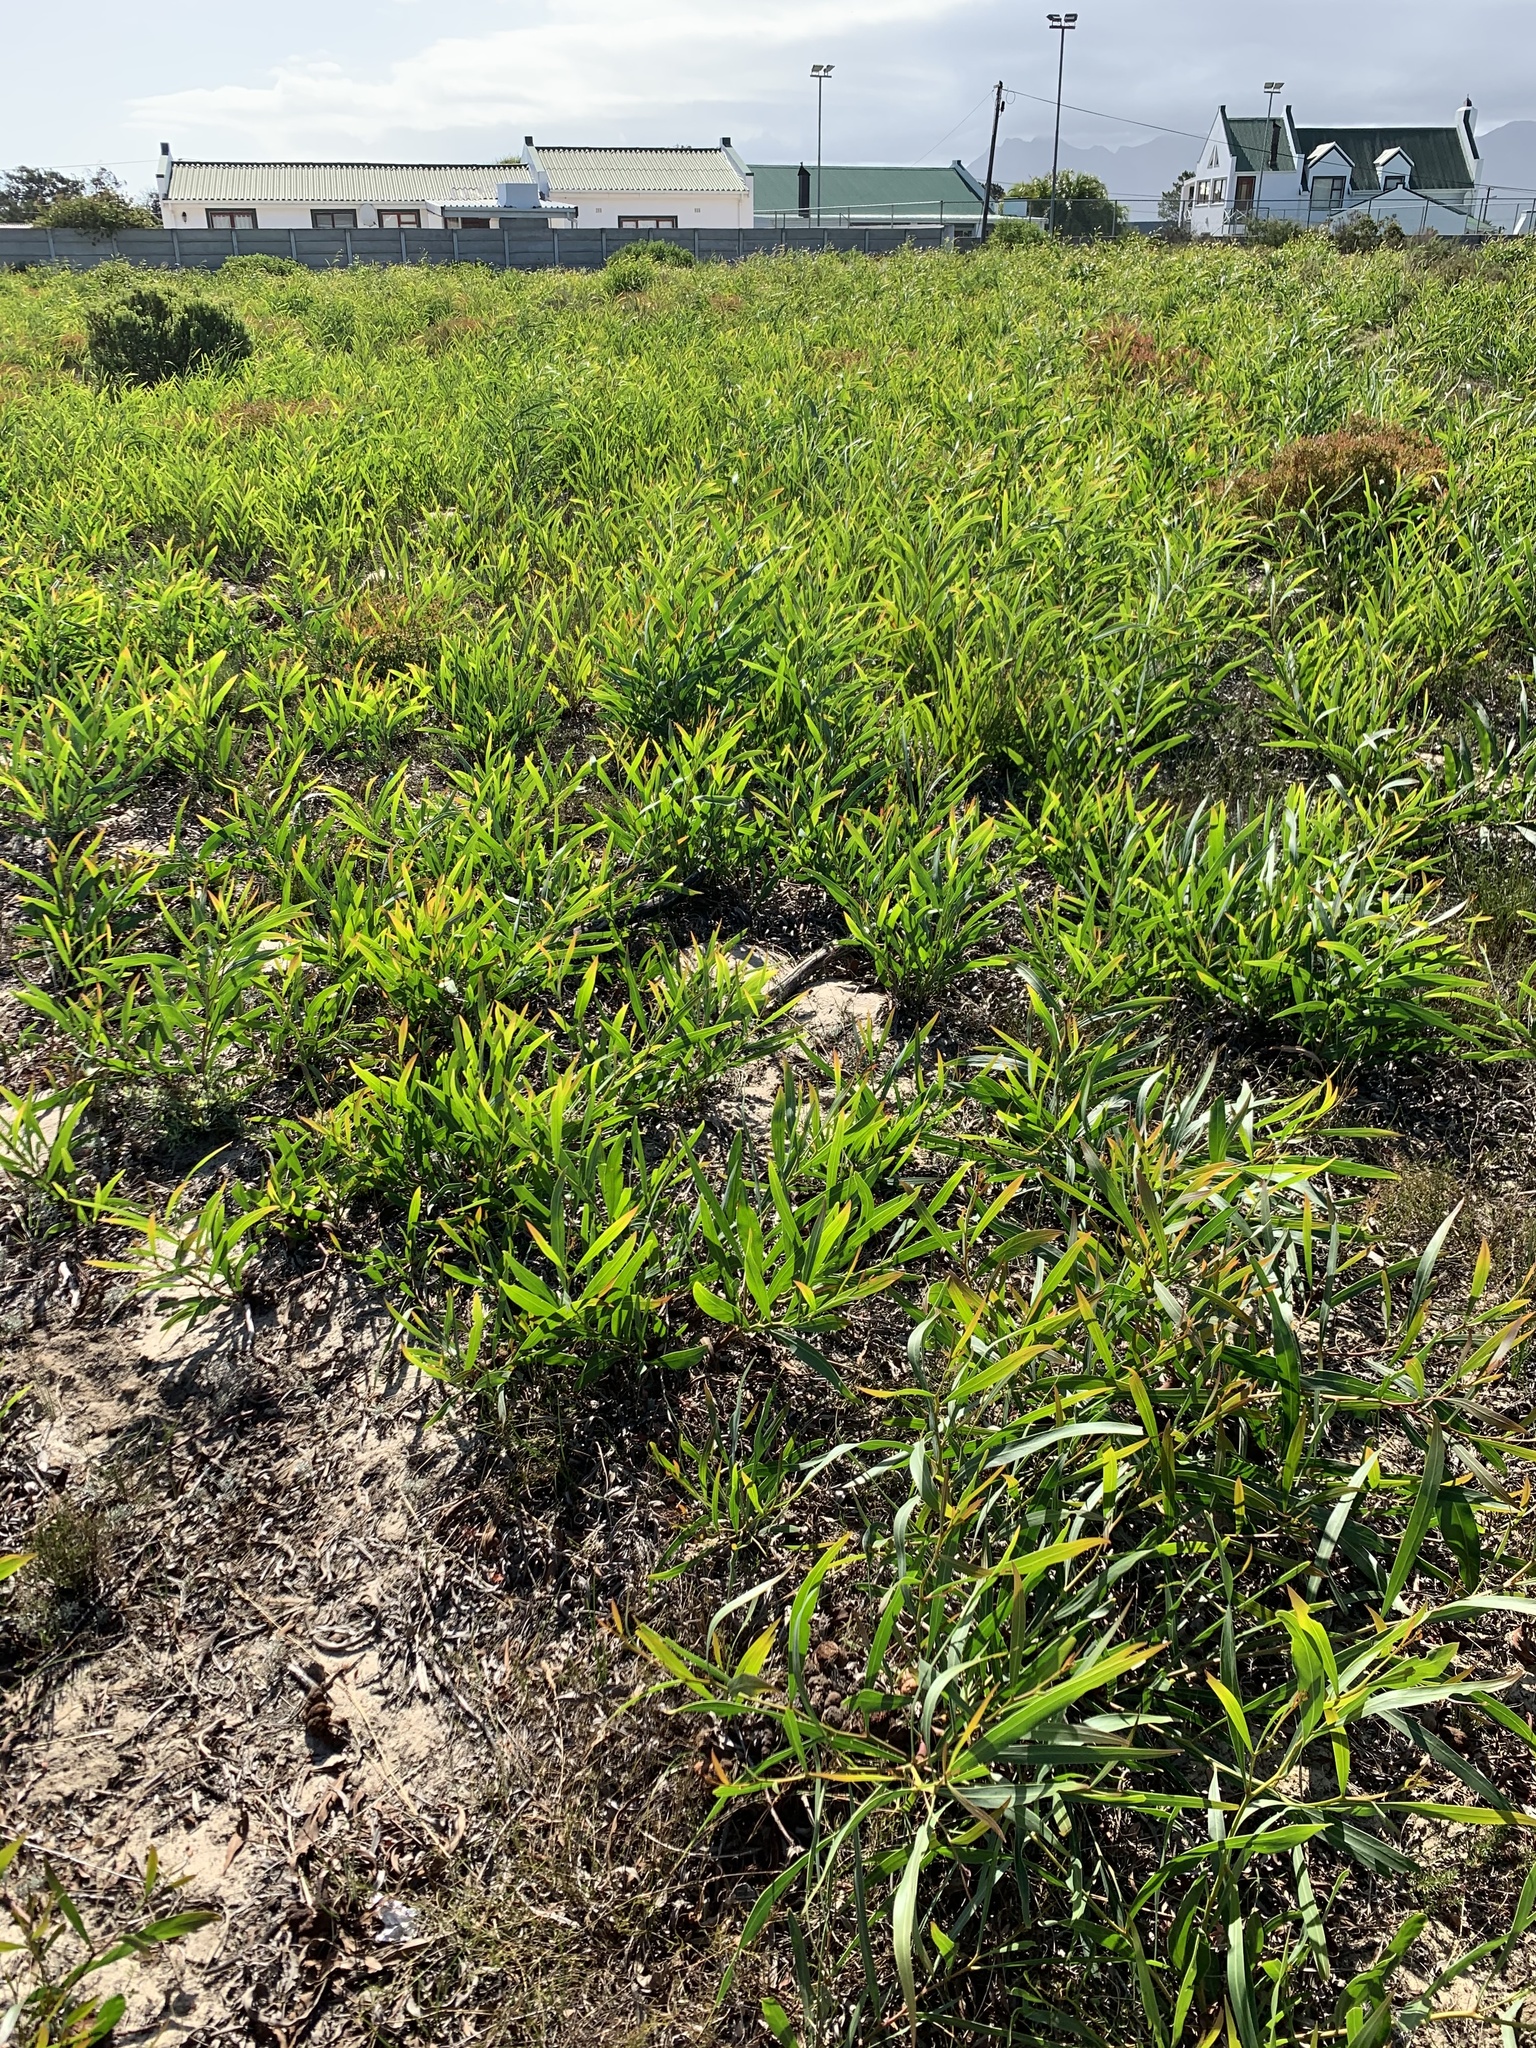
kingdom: Plantae
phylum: Tracheophyta
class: Magnoliopsida
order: Fabales
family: Fabaceae
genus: Acacia
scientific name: Acacia saligna
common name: Orange wattle
